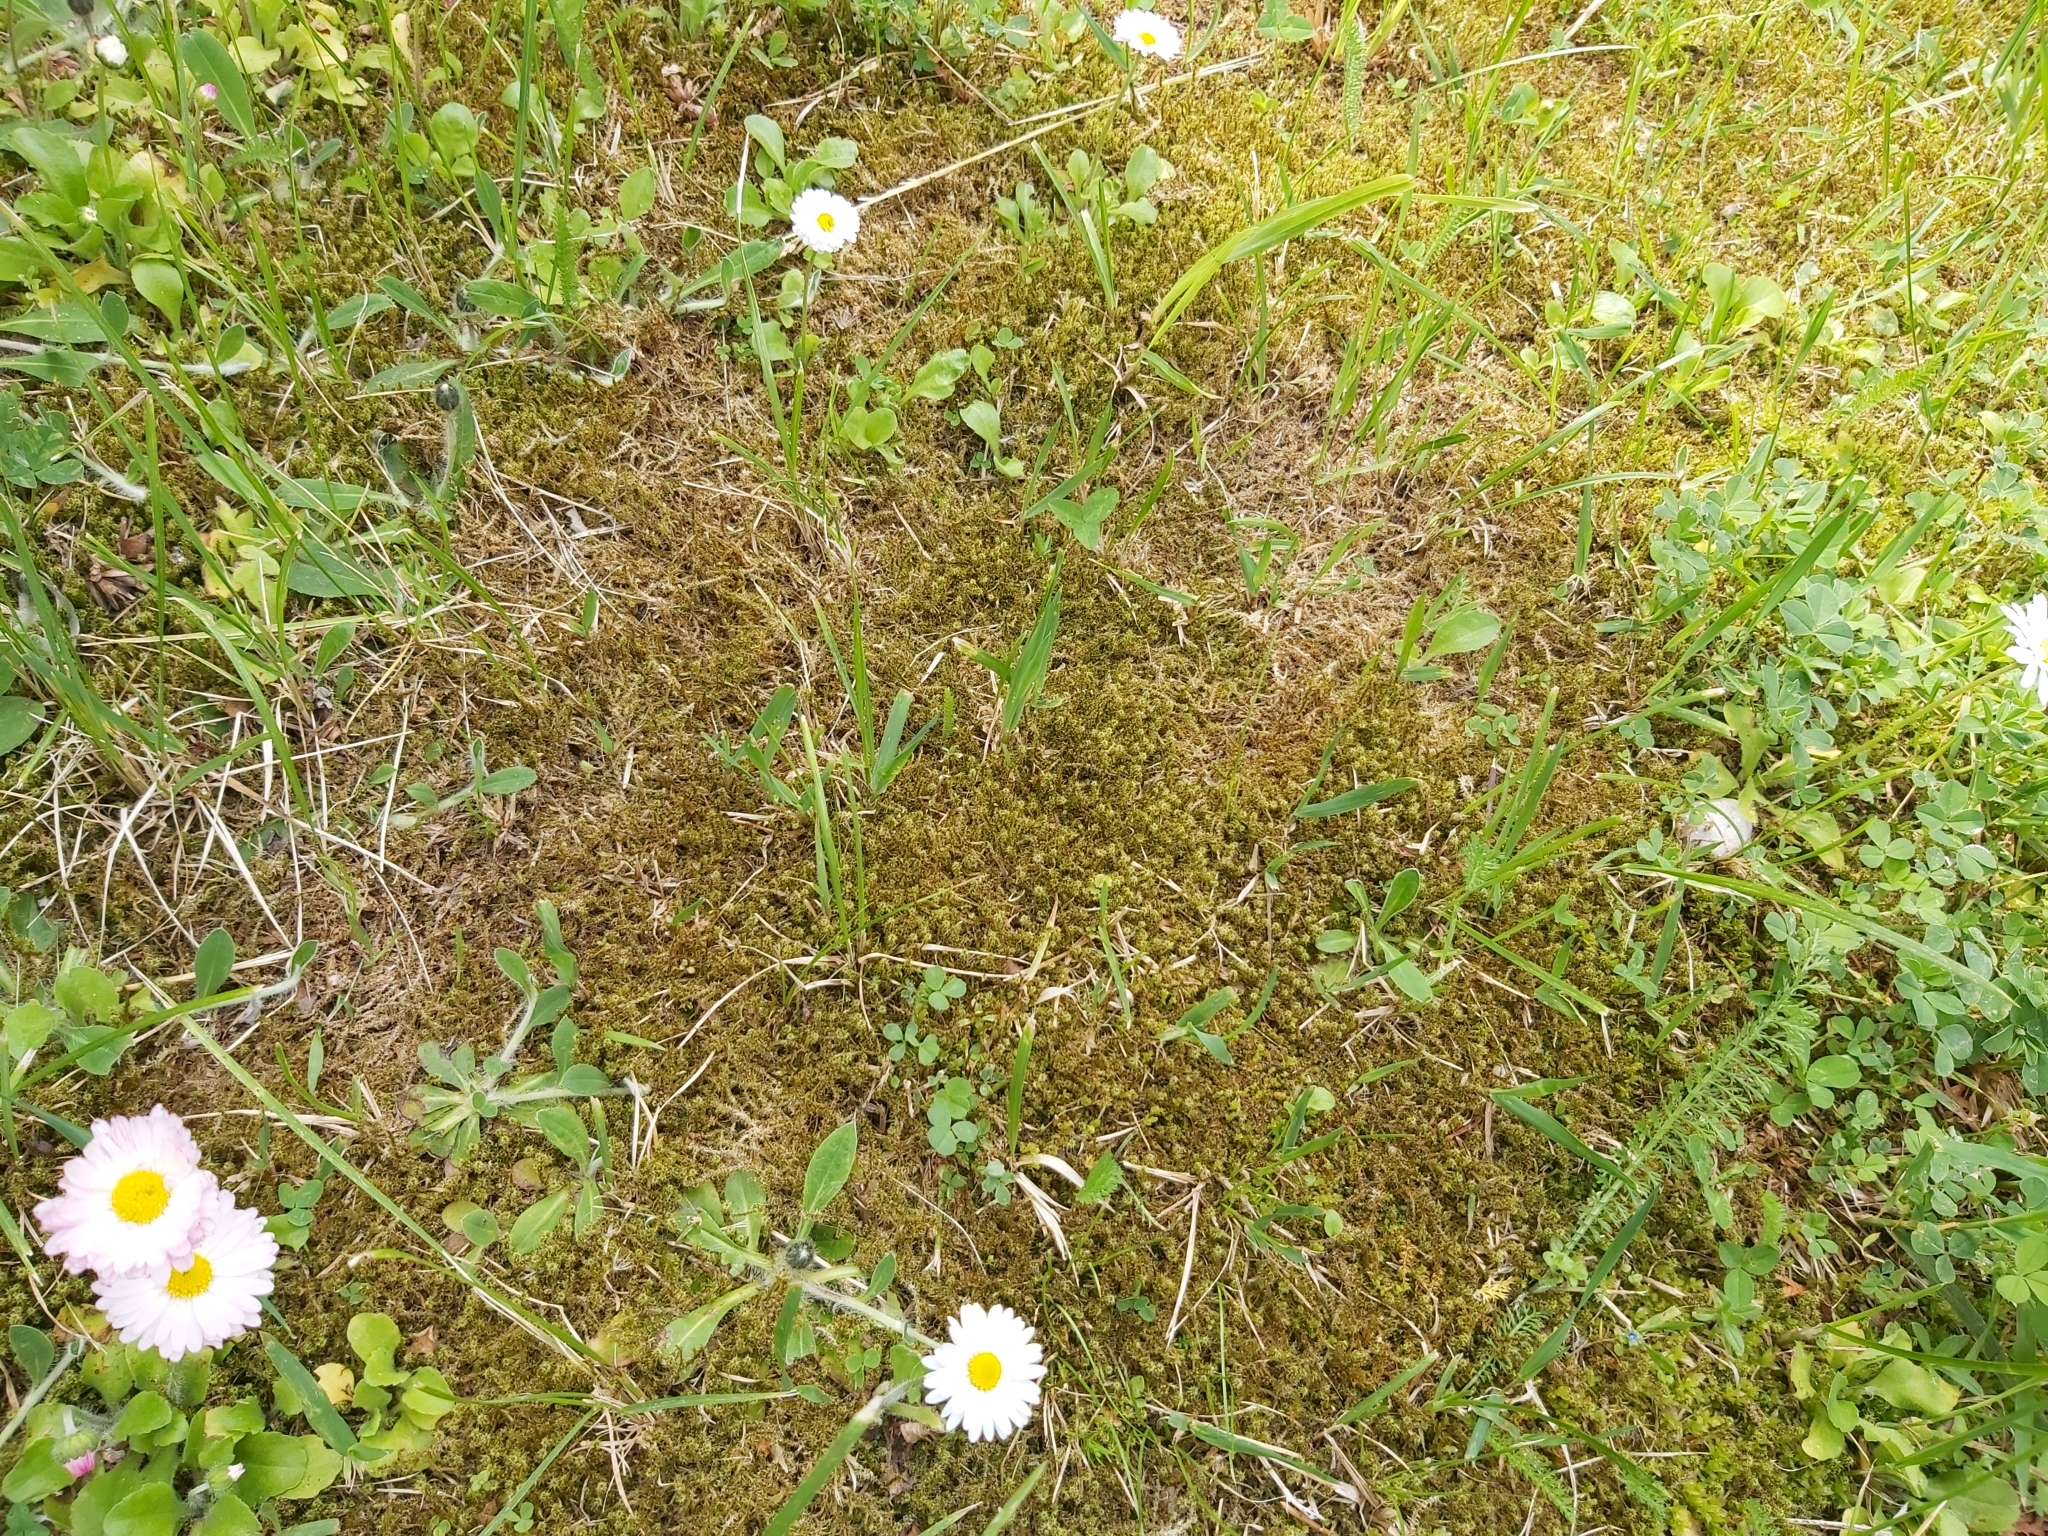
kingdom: Plantae
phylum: Bryophyta
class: Bryopsida
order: Hypnales
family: Hylocomiaceae
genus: Rhytidiadelphus
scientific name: Rhytidiadelphus squarrosus
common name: Springy turf-moss
